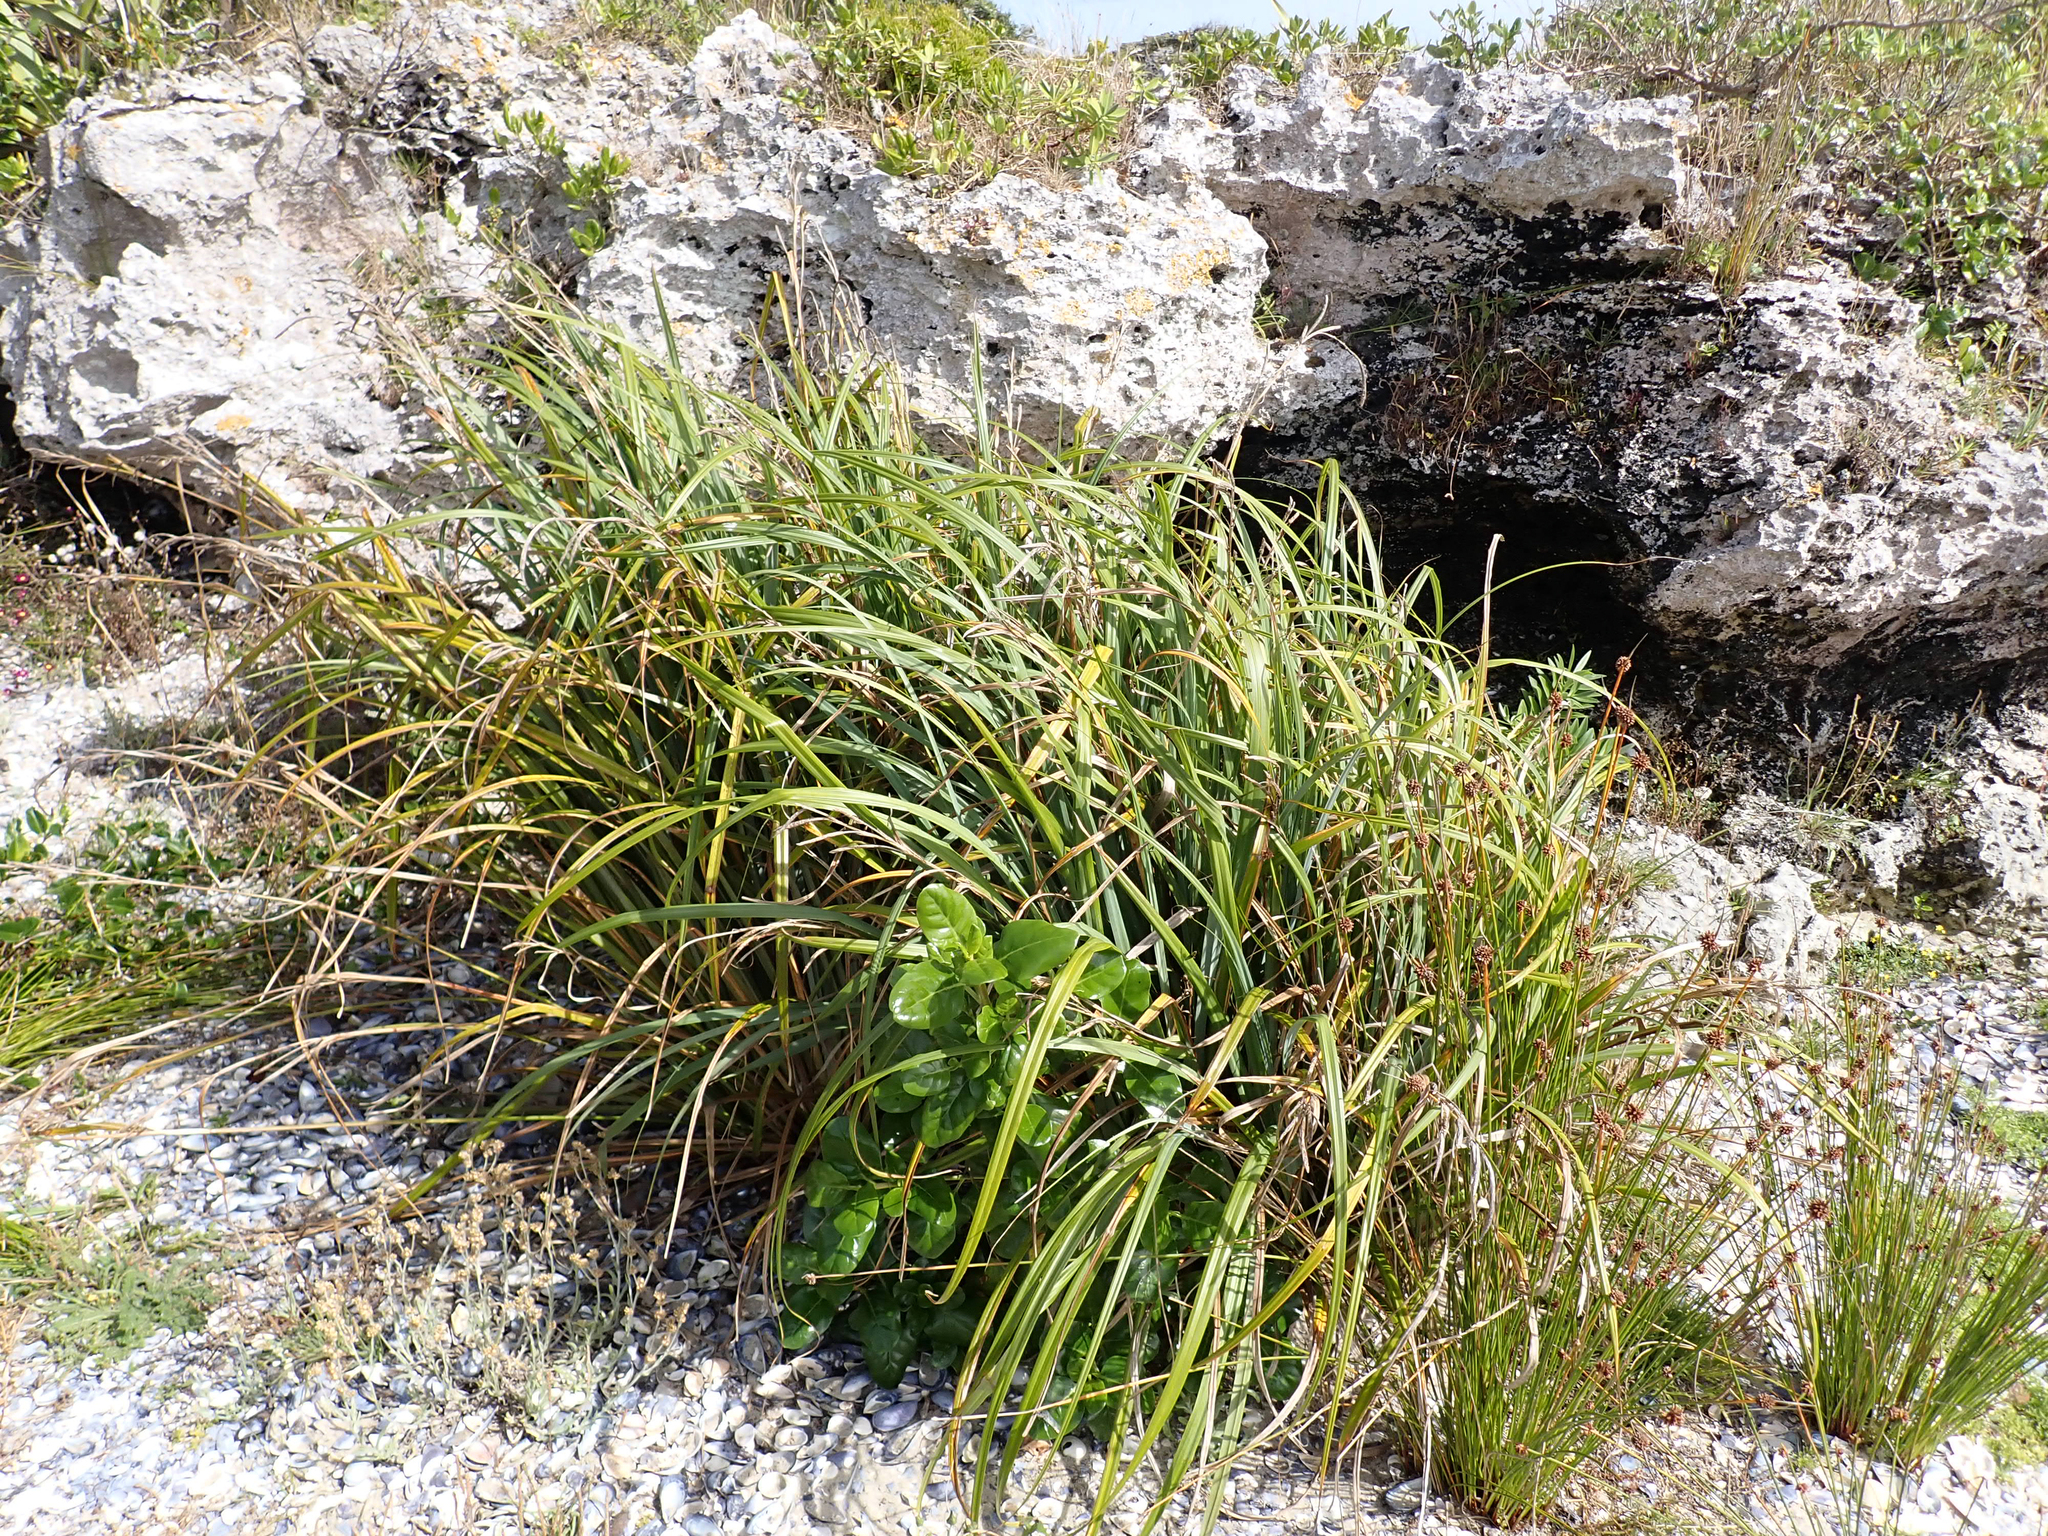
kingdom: Plantae
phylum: Tracheophyta
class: Liliopsida
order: Poales
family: Cyperaceae
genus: Carex
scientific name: Carex trifida
